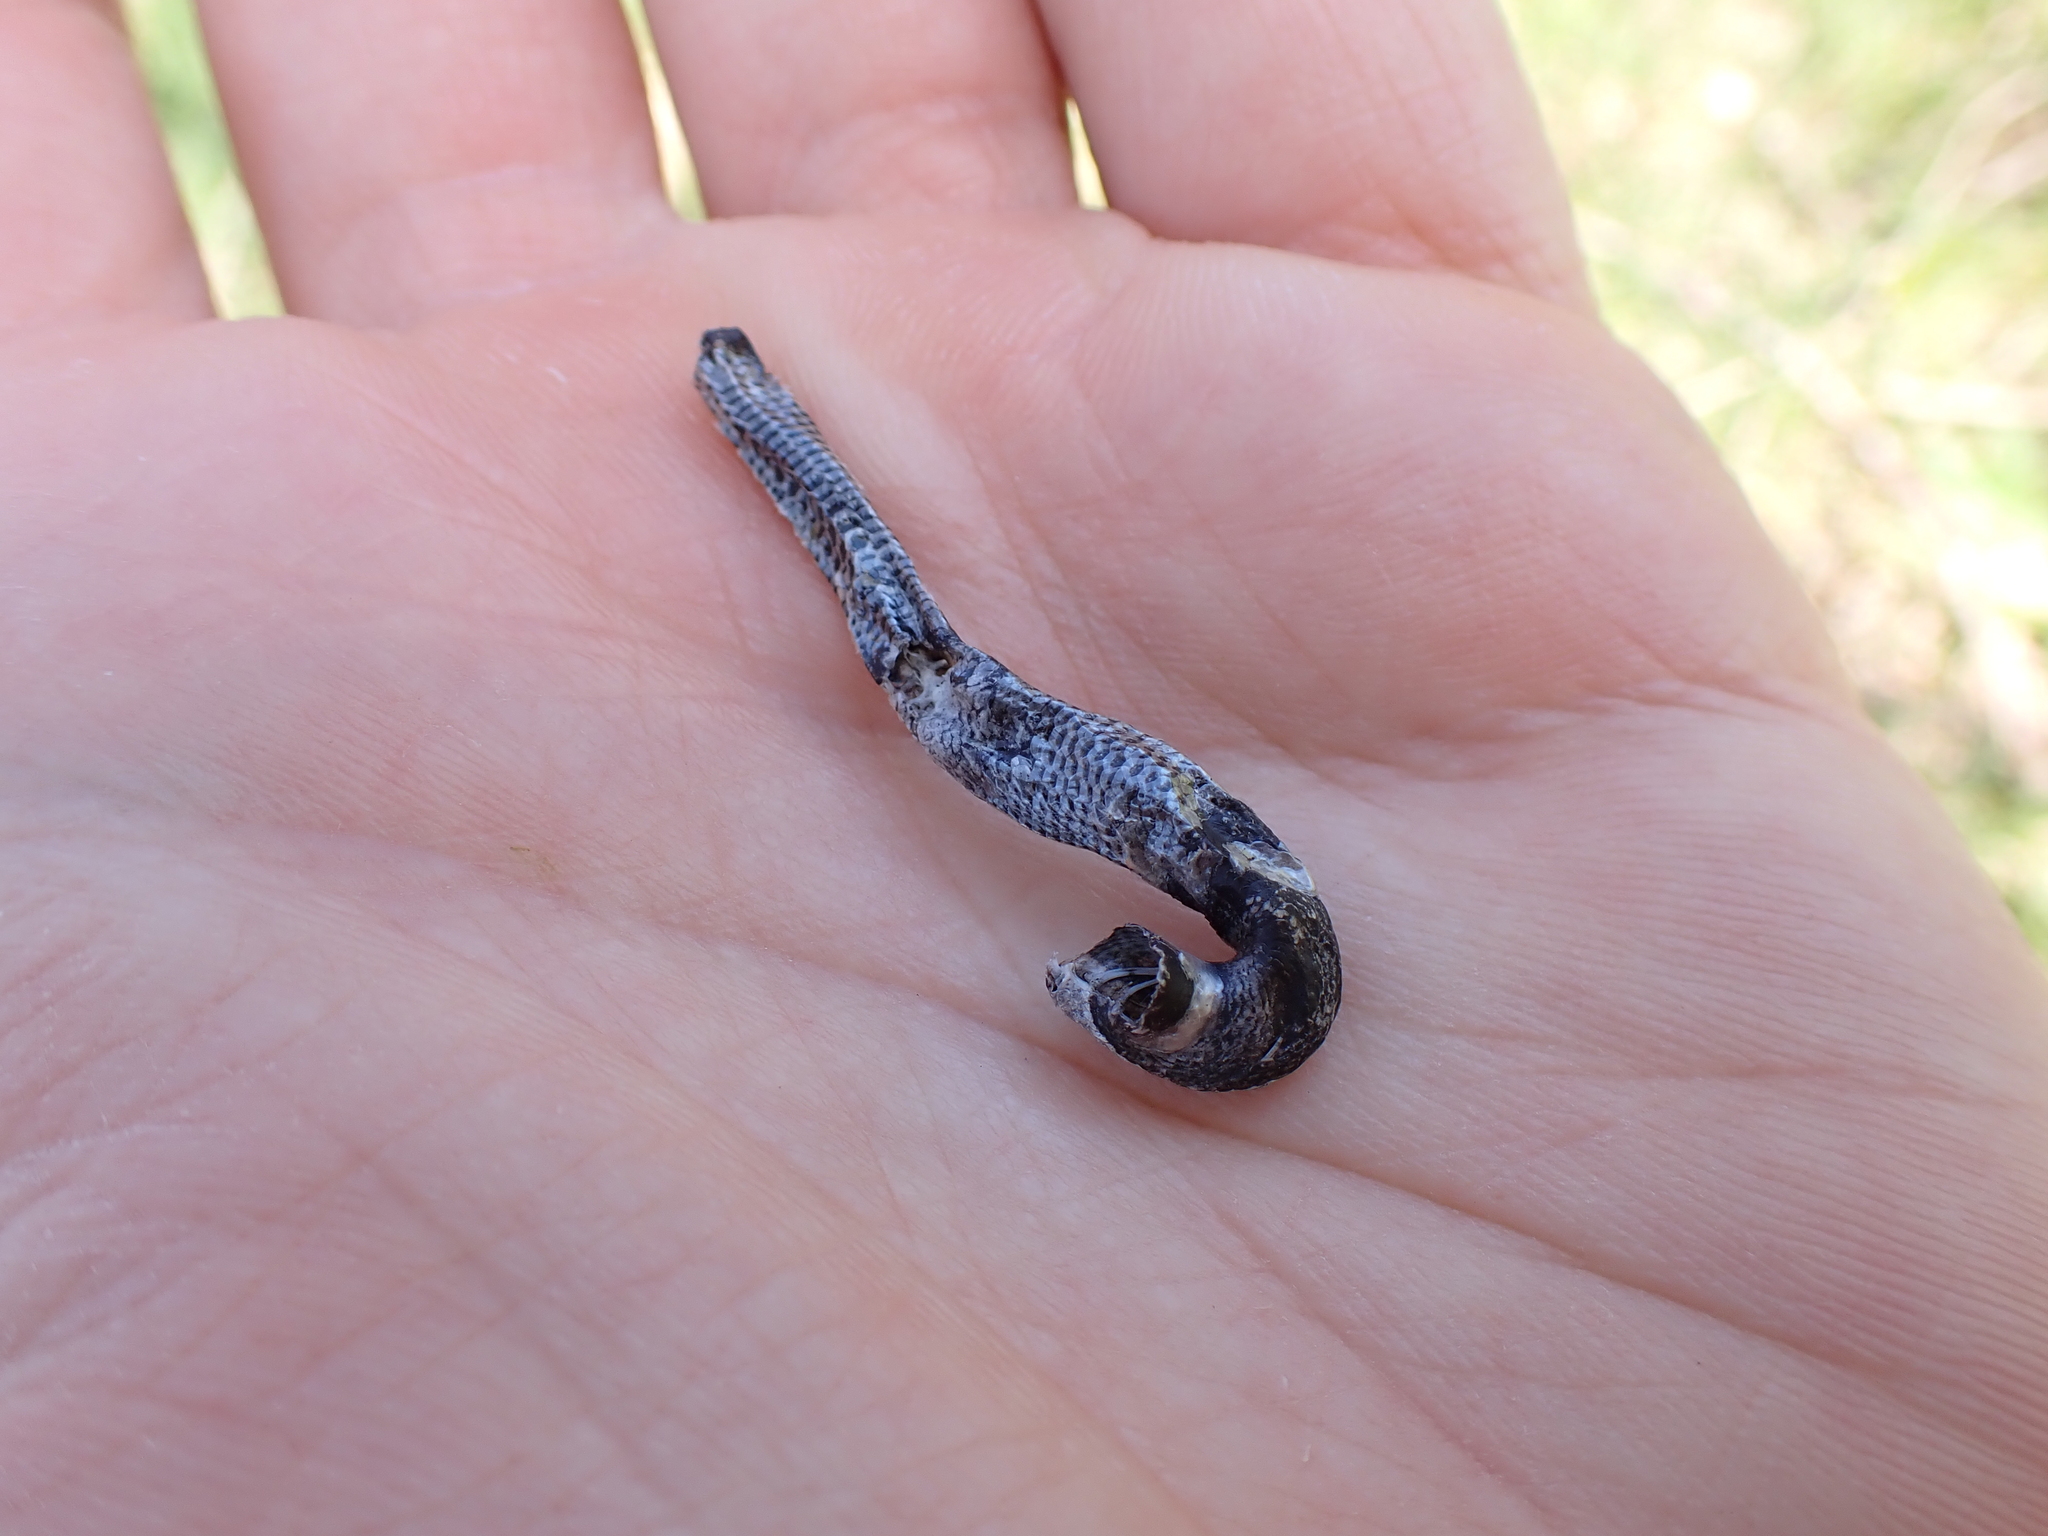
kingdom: Animalia
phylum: Chordata
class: Squamata
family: Anguidae
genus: Anguis
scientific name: Anguis fragilis
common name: Slow worm
